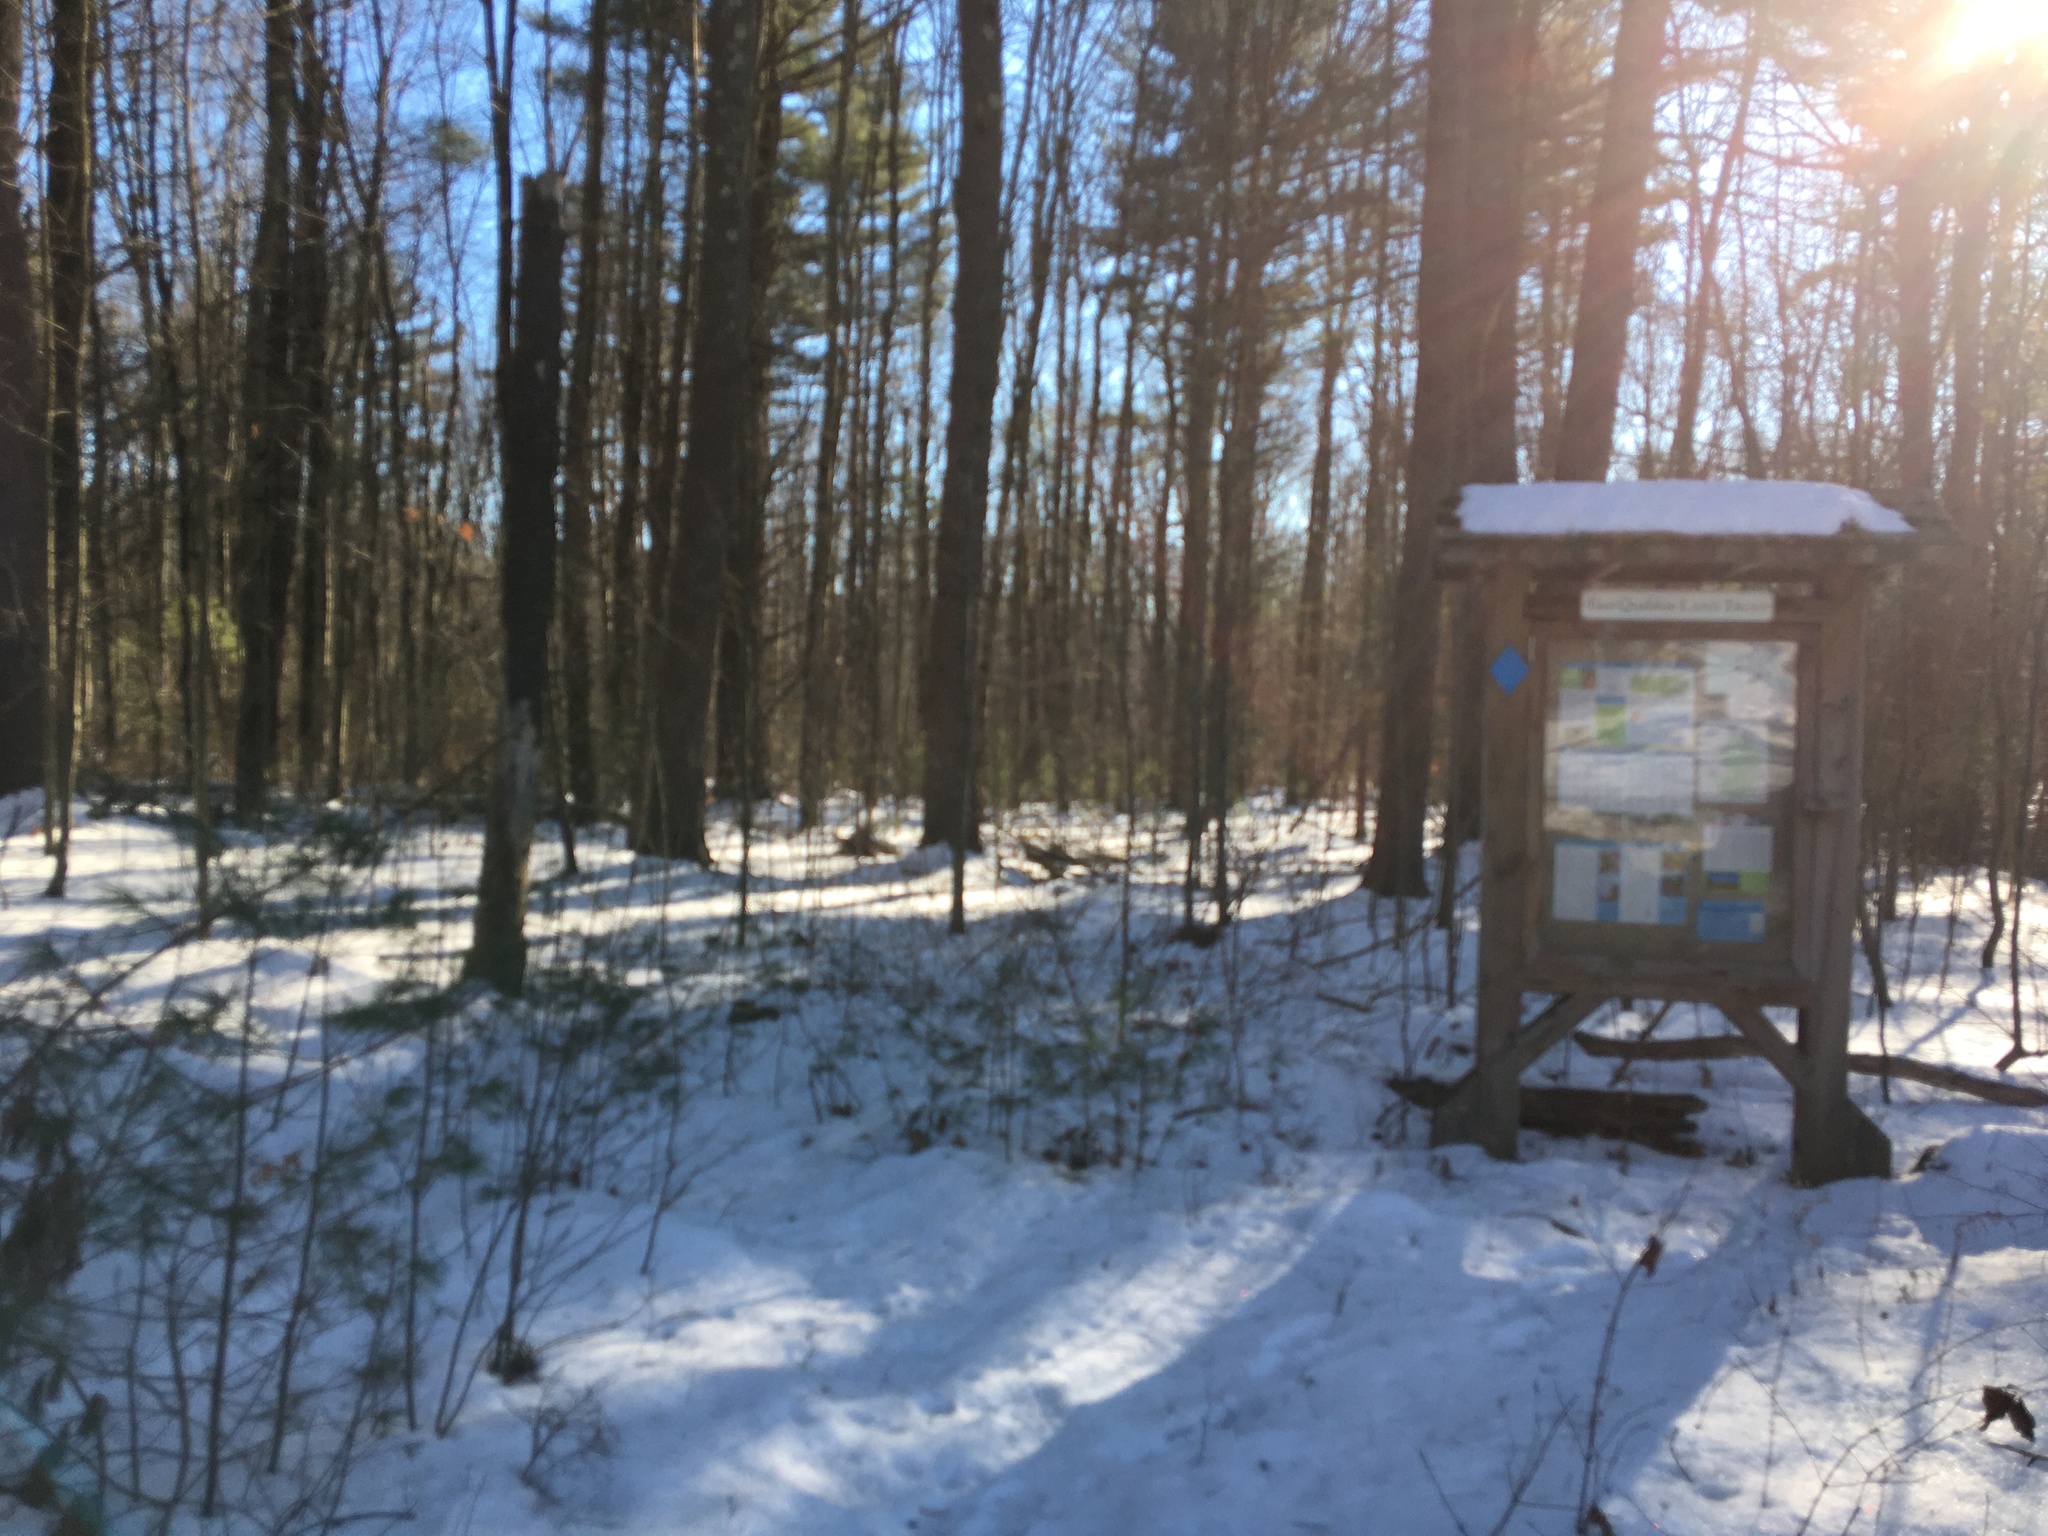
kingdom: Plantae
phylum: Tracheophyta
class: Pinopsida
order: Pinales
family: Pinaceae
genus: Pinus
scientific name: Pinus strobus
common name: Weymouth pine
